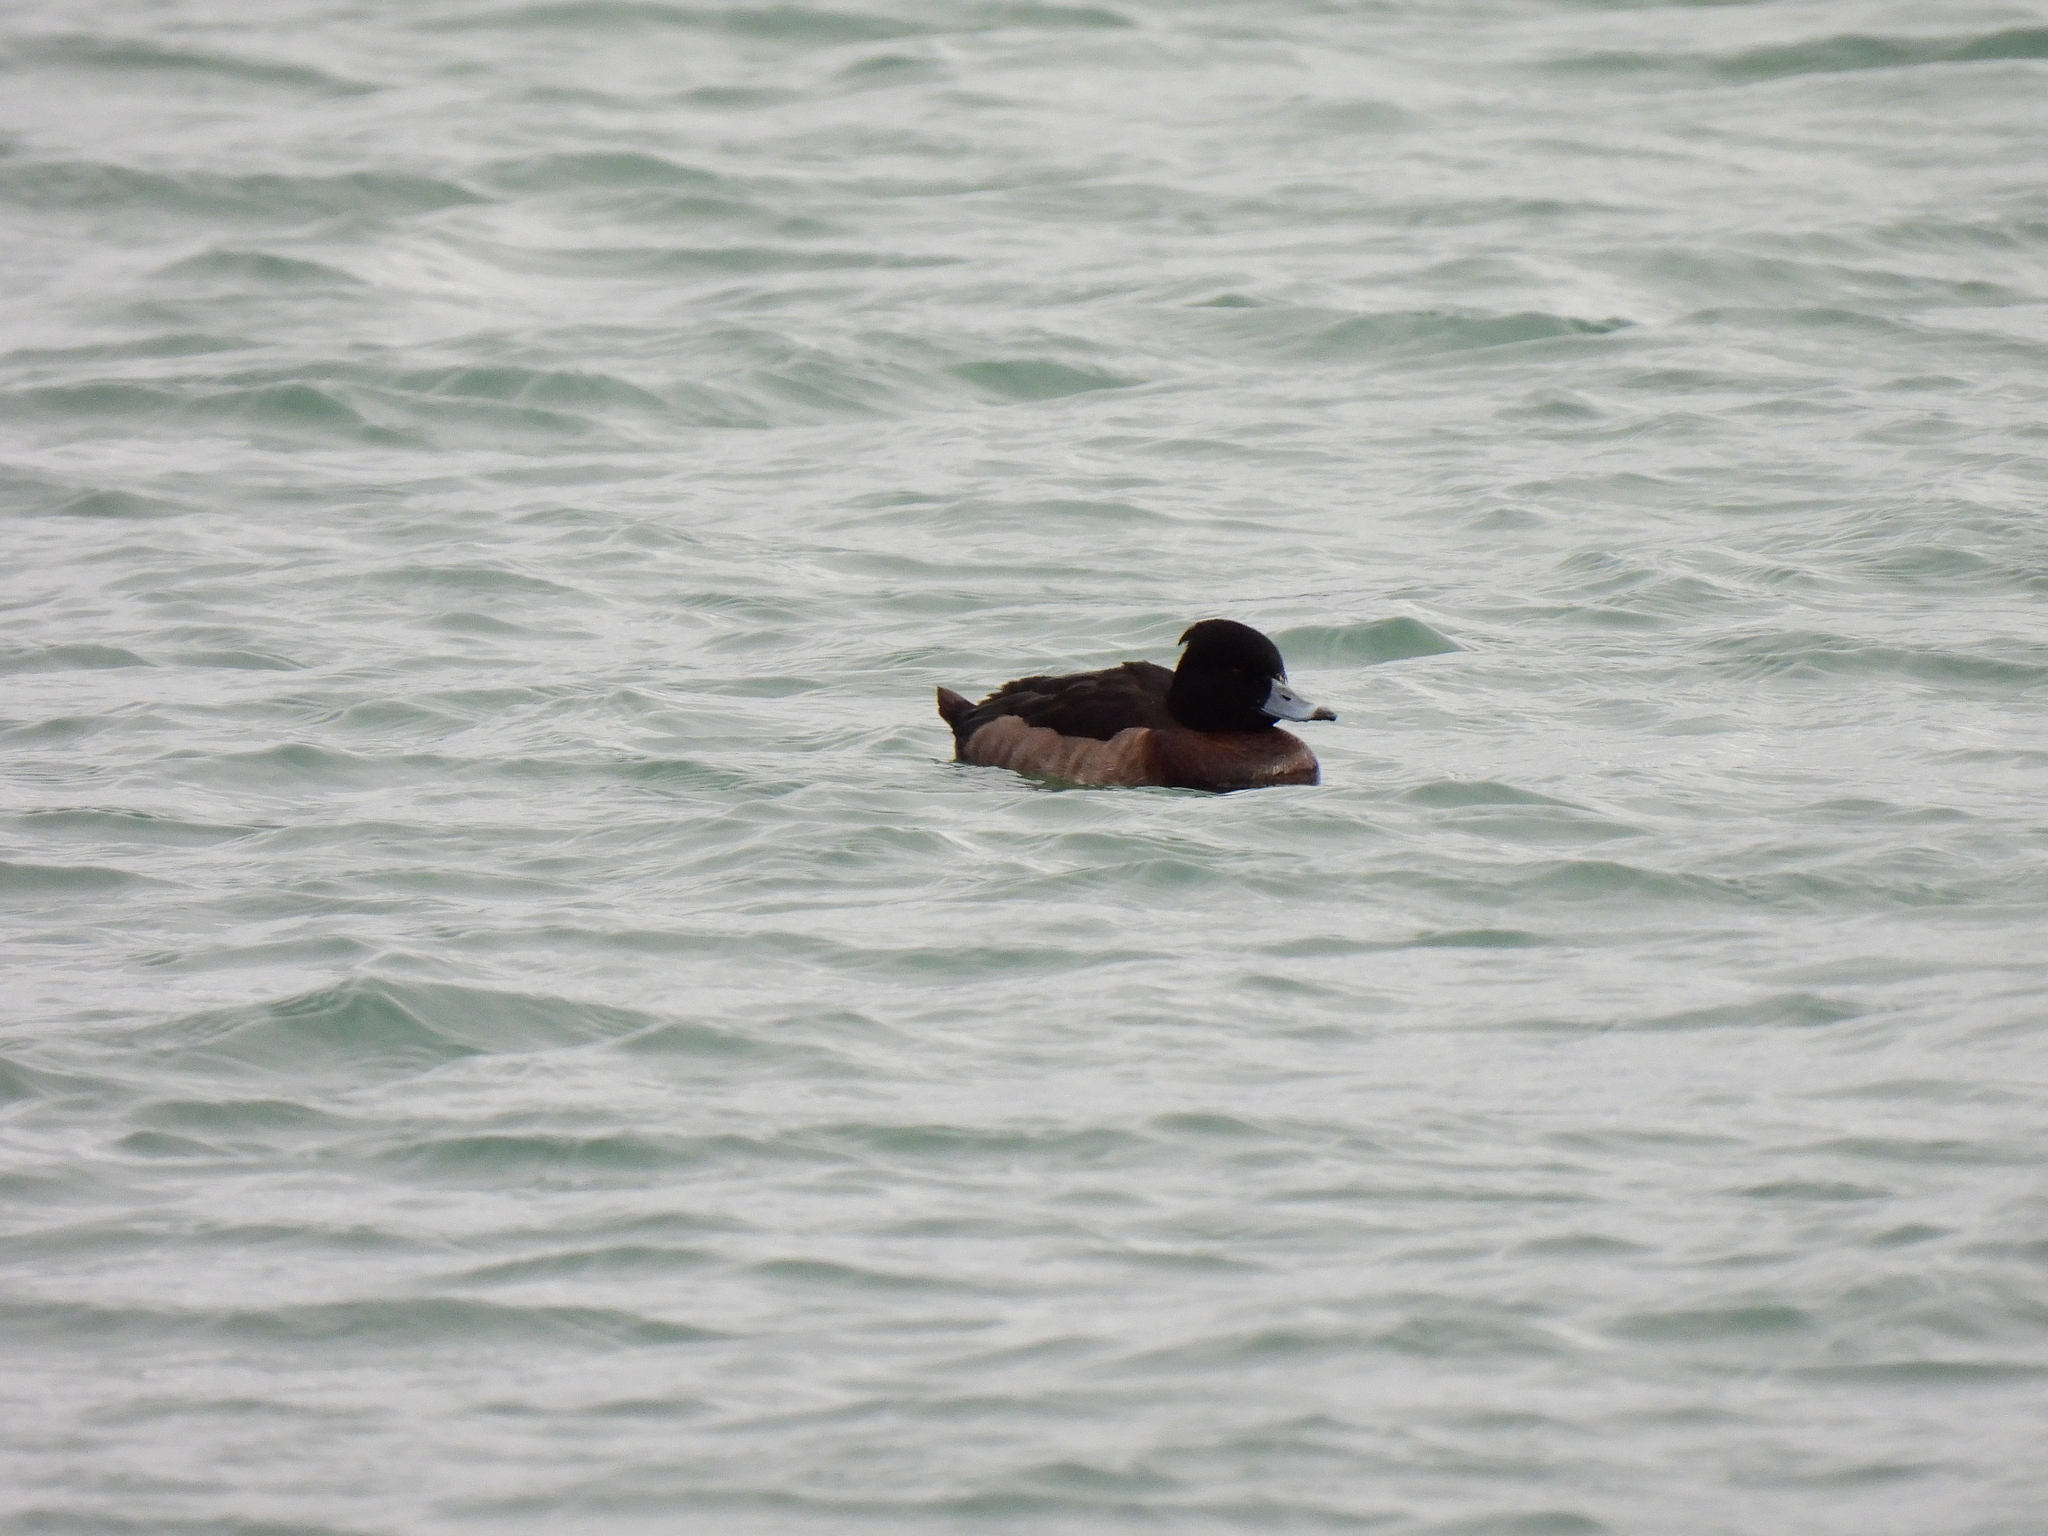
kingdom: Animalia
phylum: Chordata
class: Aves
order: Anseriformes
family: Anatidae
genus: Aythya
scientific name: Aythya fuligula
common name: Tufted duck
